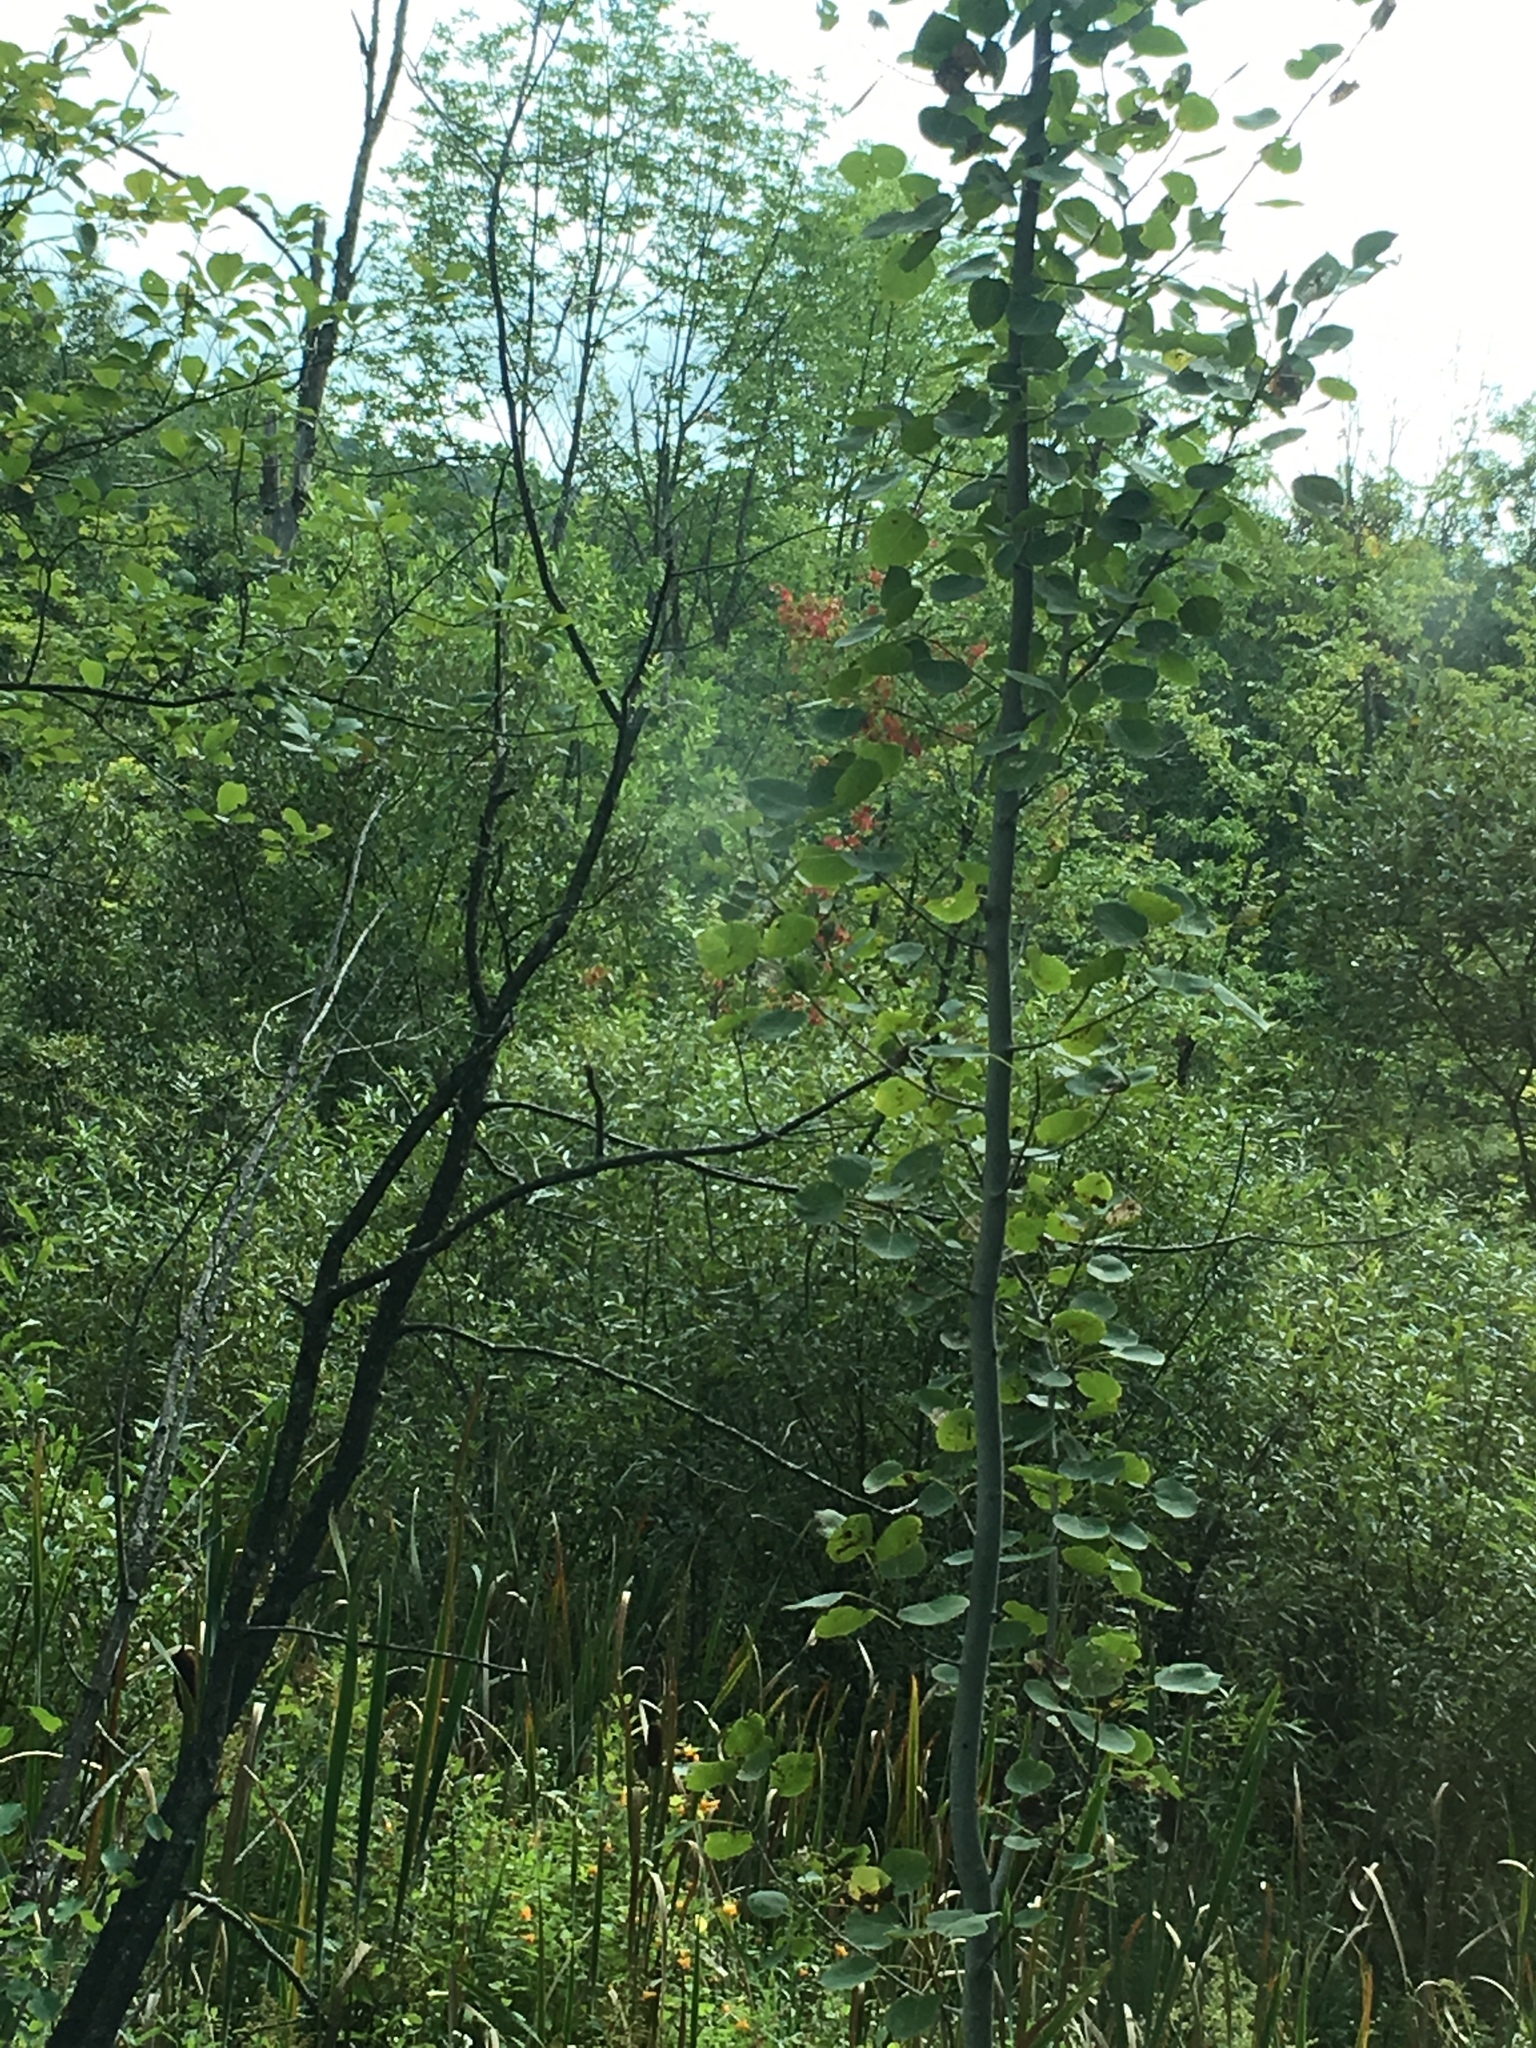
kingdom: Plantae
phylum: Tracheophyta
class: Magnoliopsida
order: Malpighiales
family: Salicaceae
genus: Populus
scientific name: Populus tremuloides
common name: Quaking aspen
